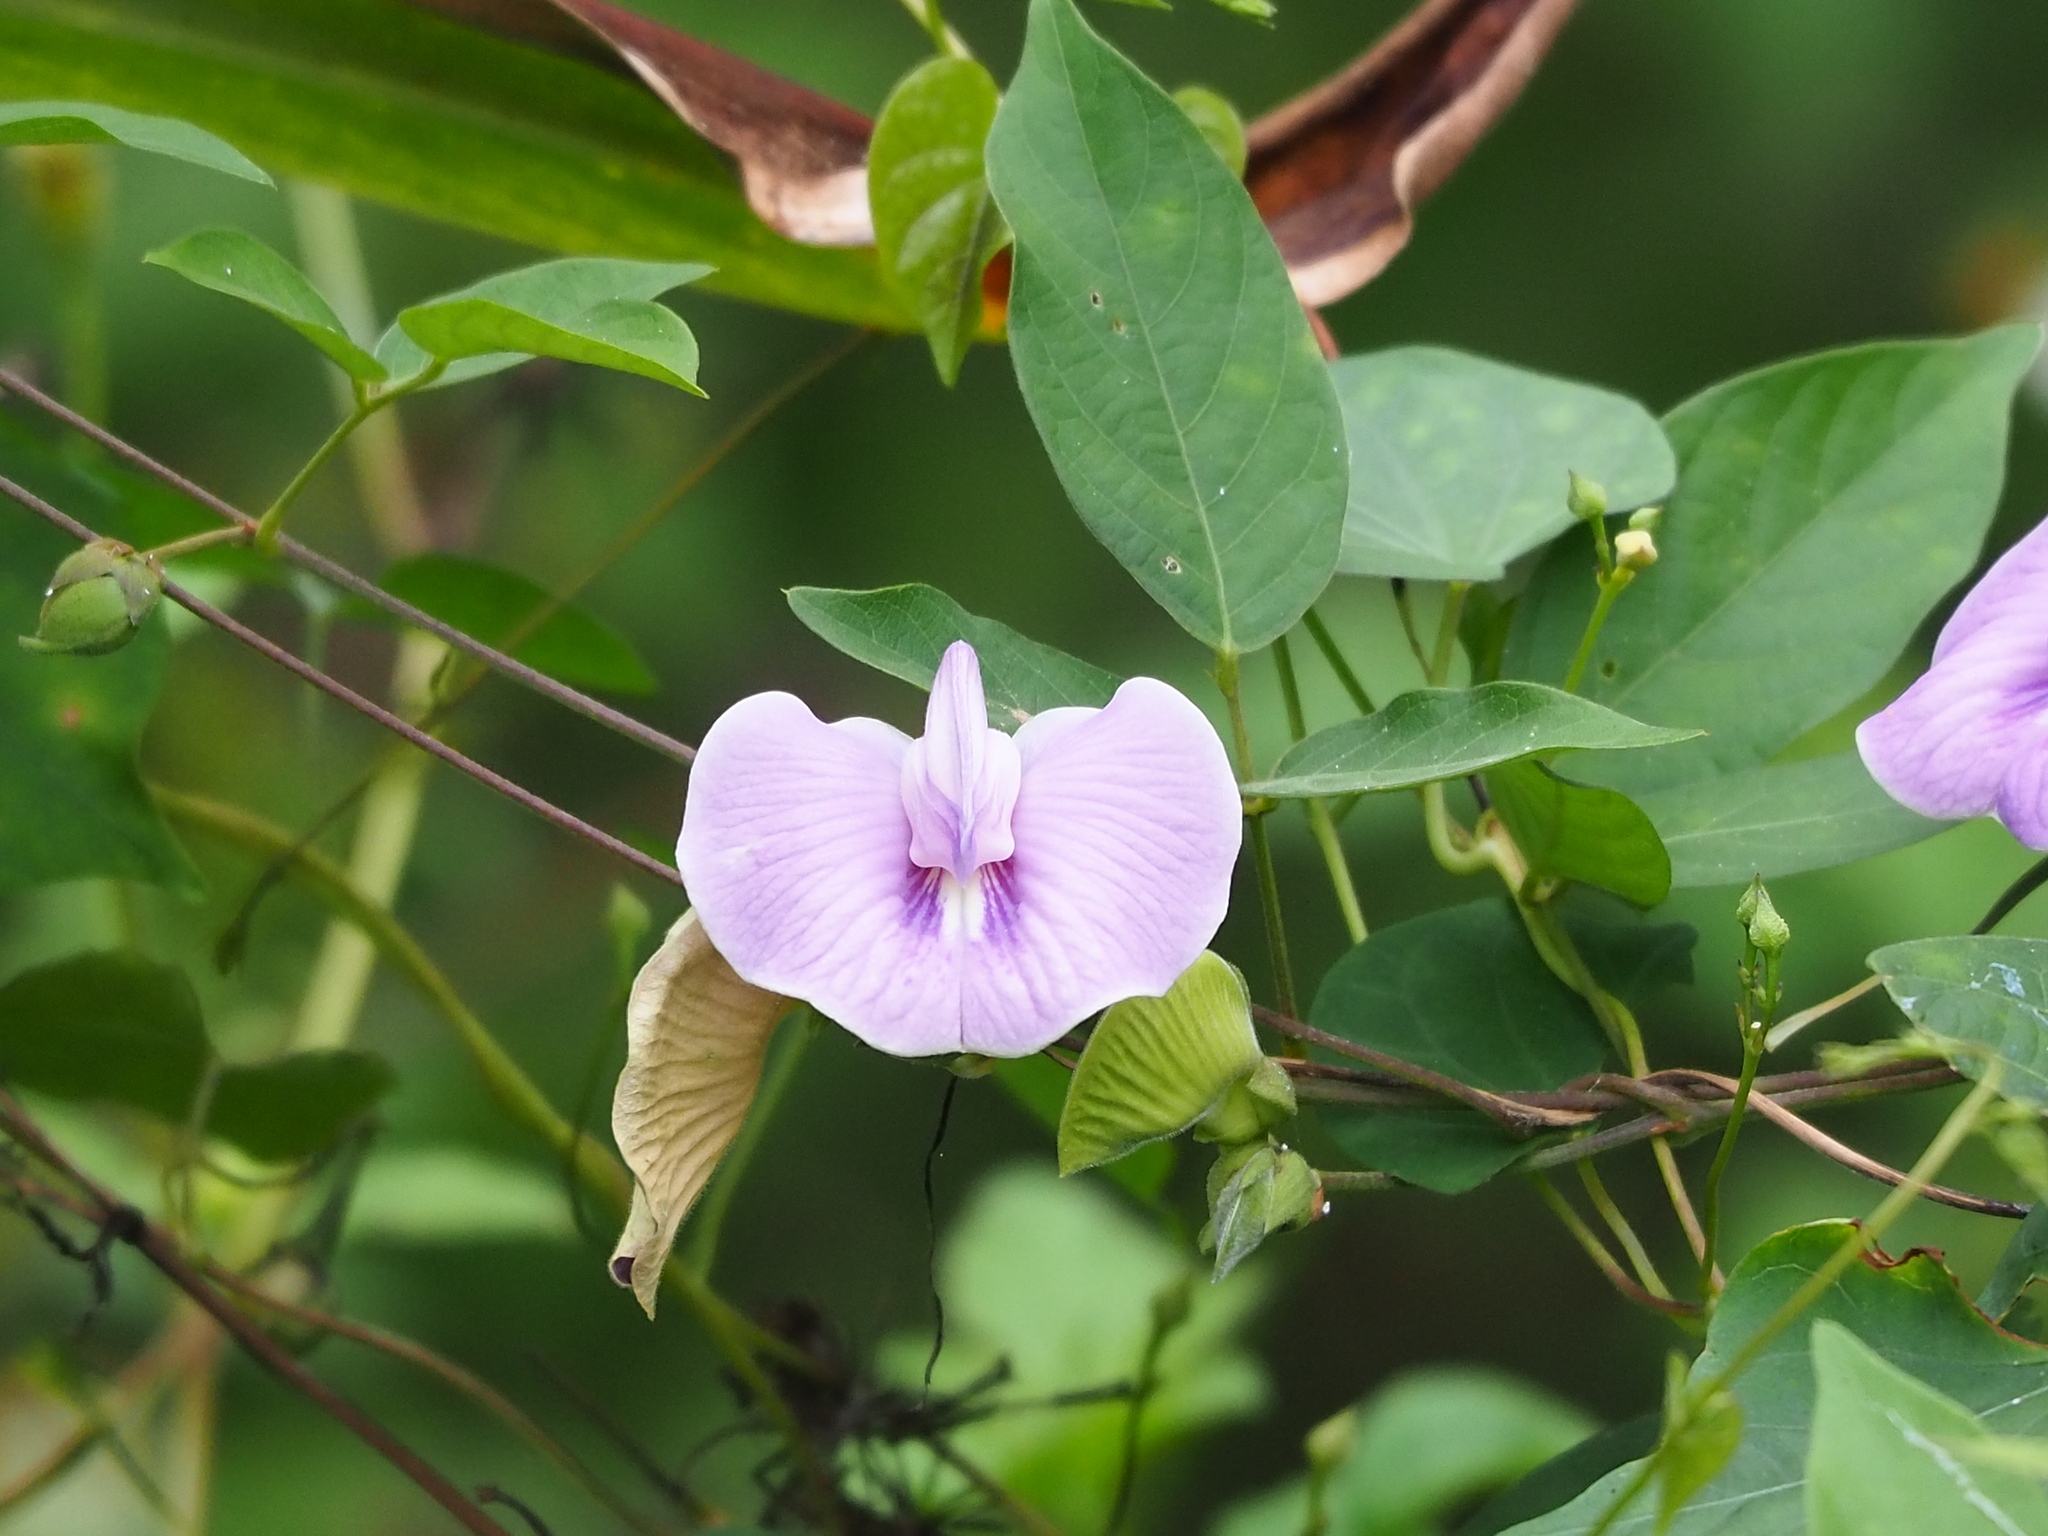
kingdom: Plantae
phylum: Tracheophyta
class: Magnoliopsida
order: Fabales
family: Fabaceae
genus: Centrosema
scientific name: Centrosema pubescens
